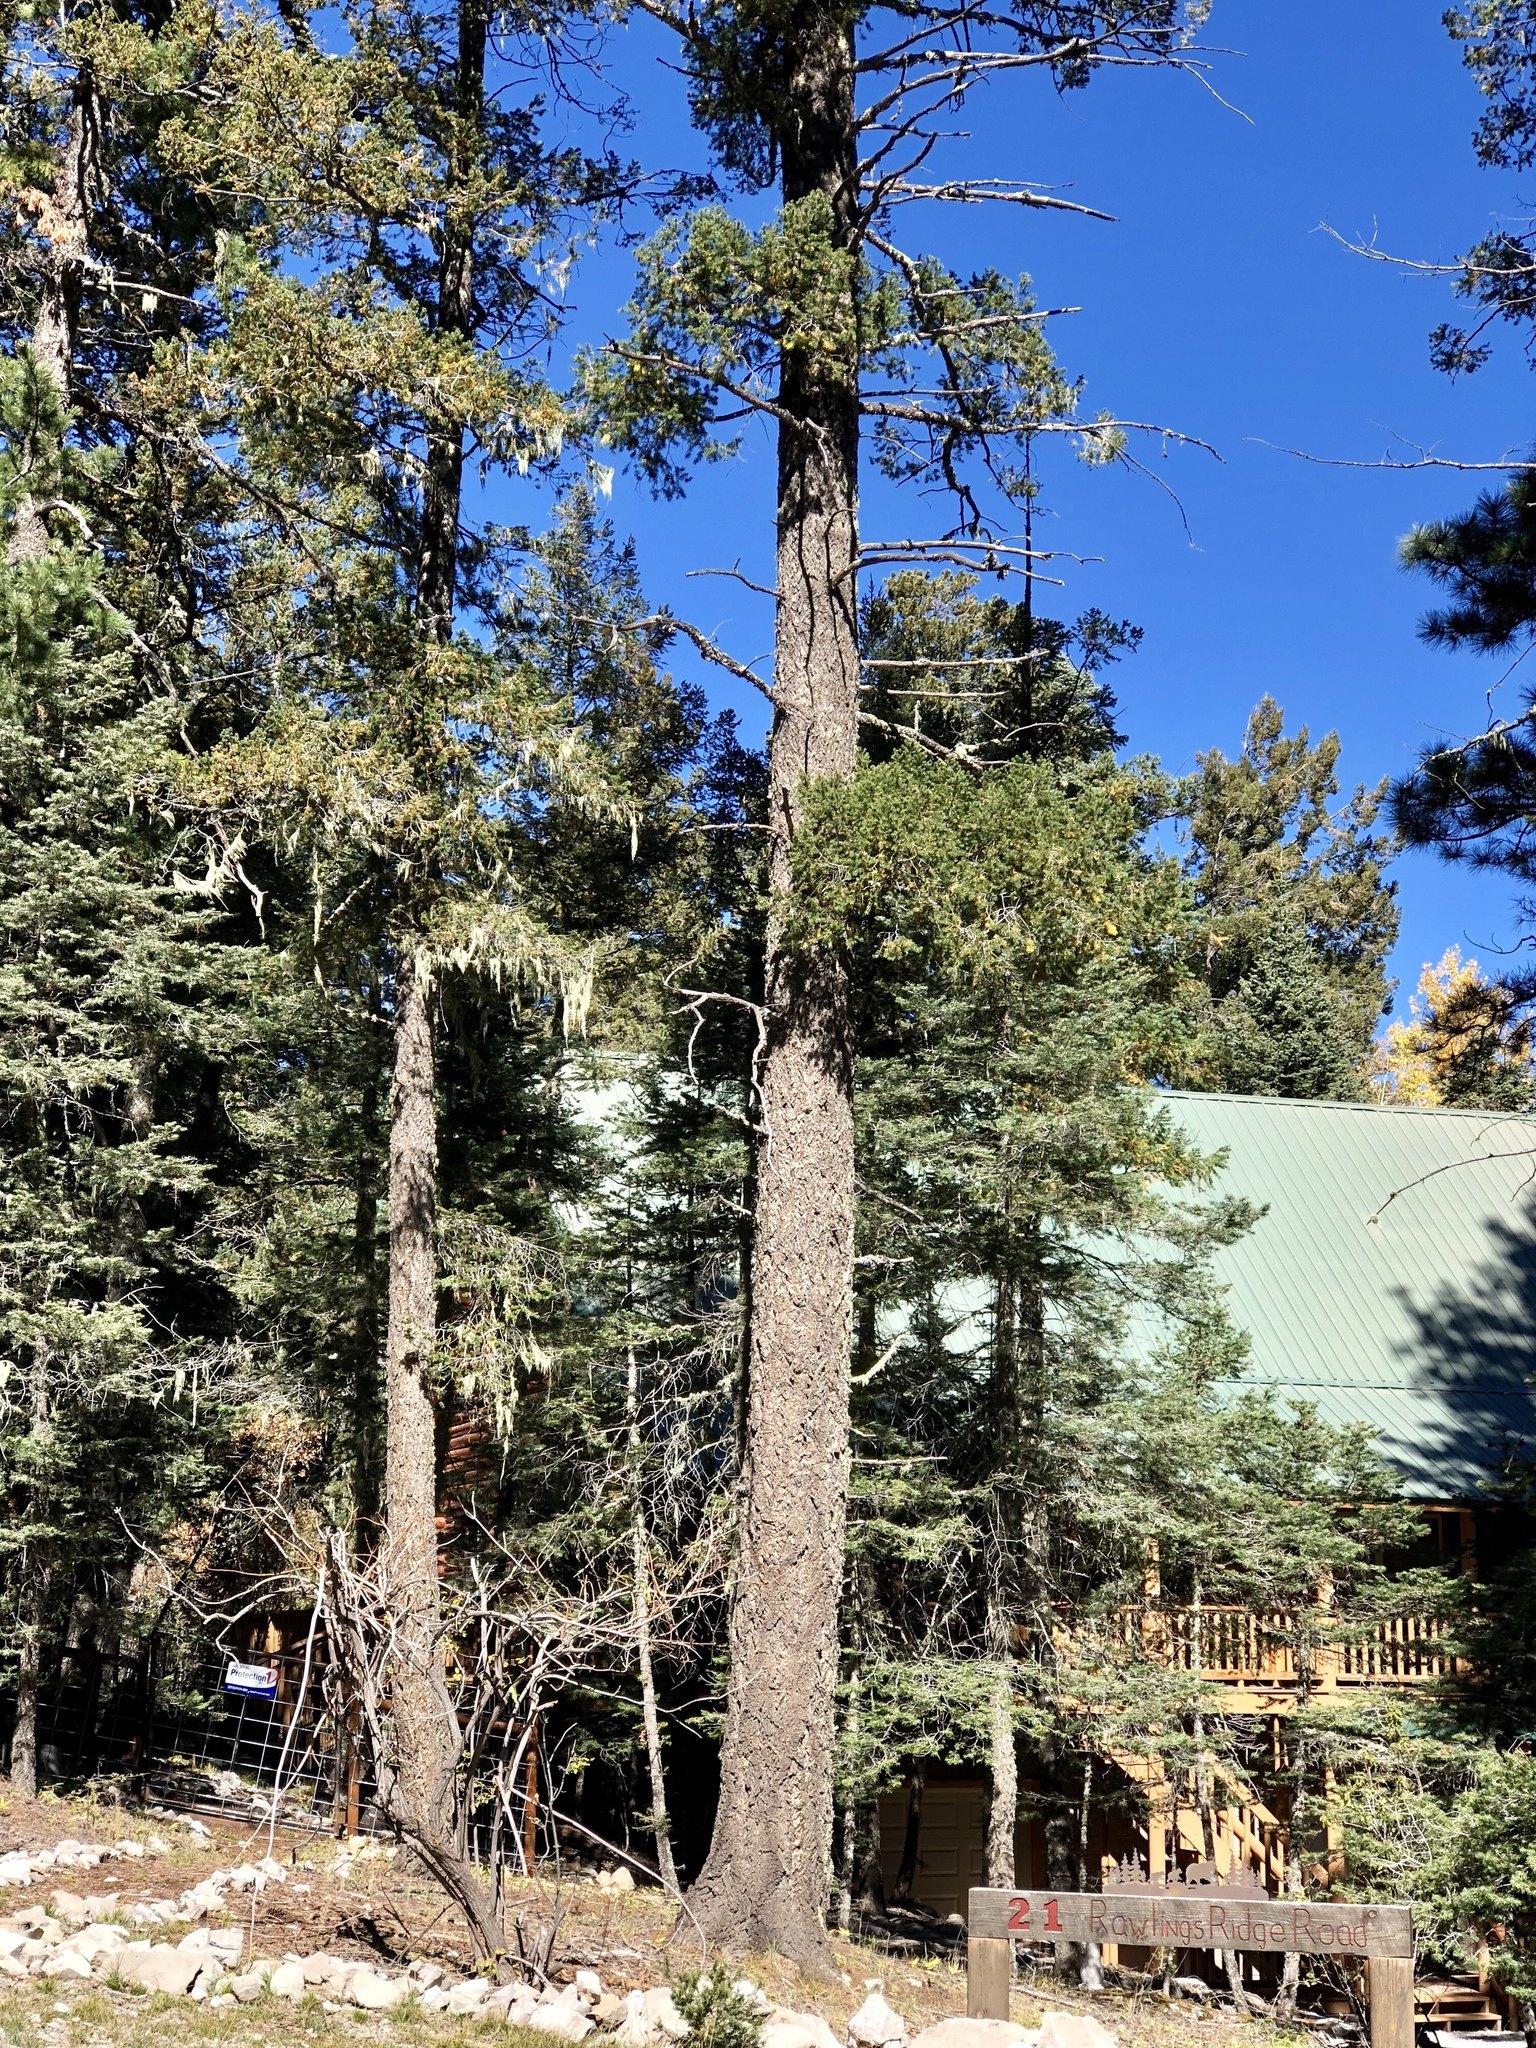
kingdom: Plantae
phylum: Tracheophyta
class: Pinopsida
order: Pinales
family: Pinaceae
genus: Pseudotsuga
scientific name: Pseudotsuga menziesii
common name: Douglas fir
